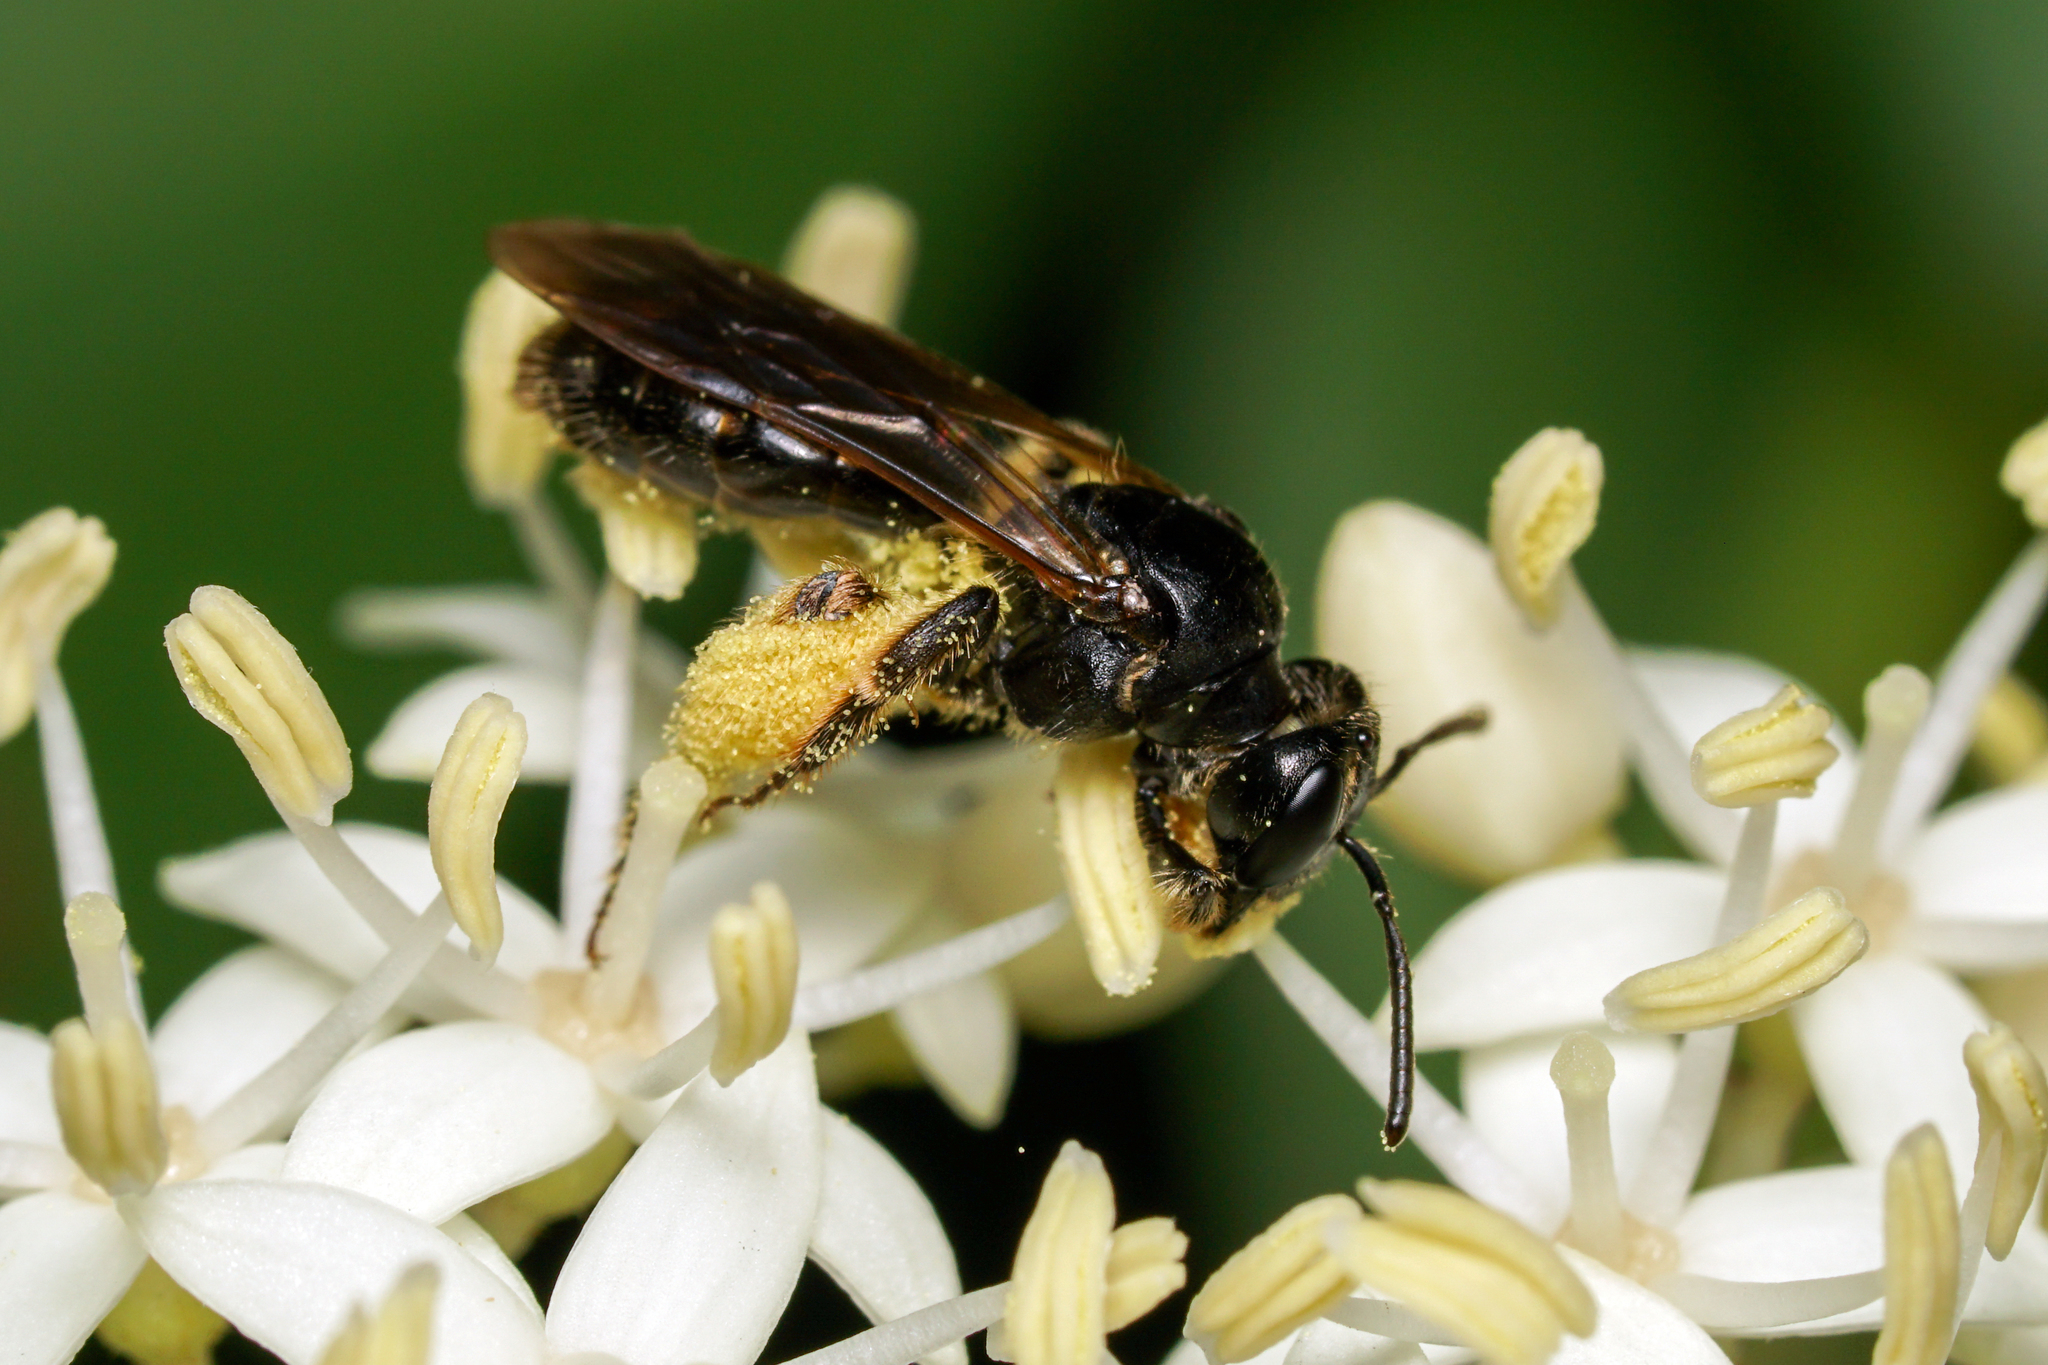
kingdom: Animalia
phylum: Arthropoda
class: Insecta
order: Hymenoptera
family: Andrenidae
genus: Andrena
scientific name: Andrena integra
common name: Short-haired dogwood mining bee
